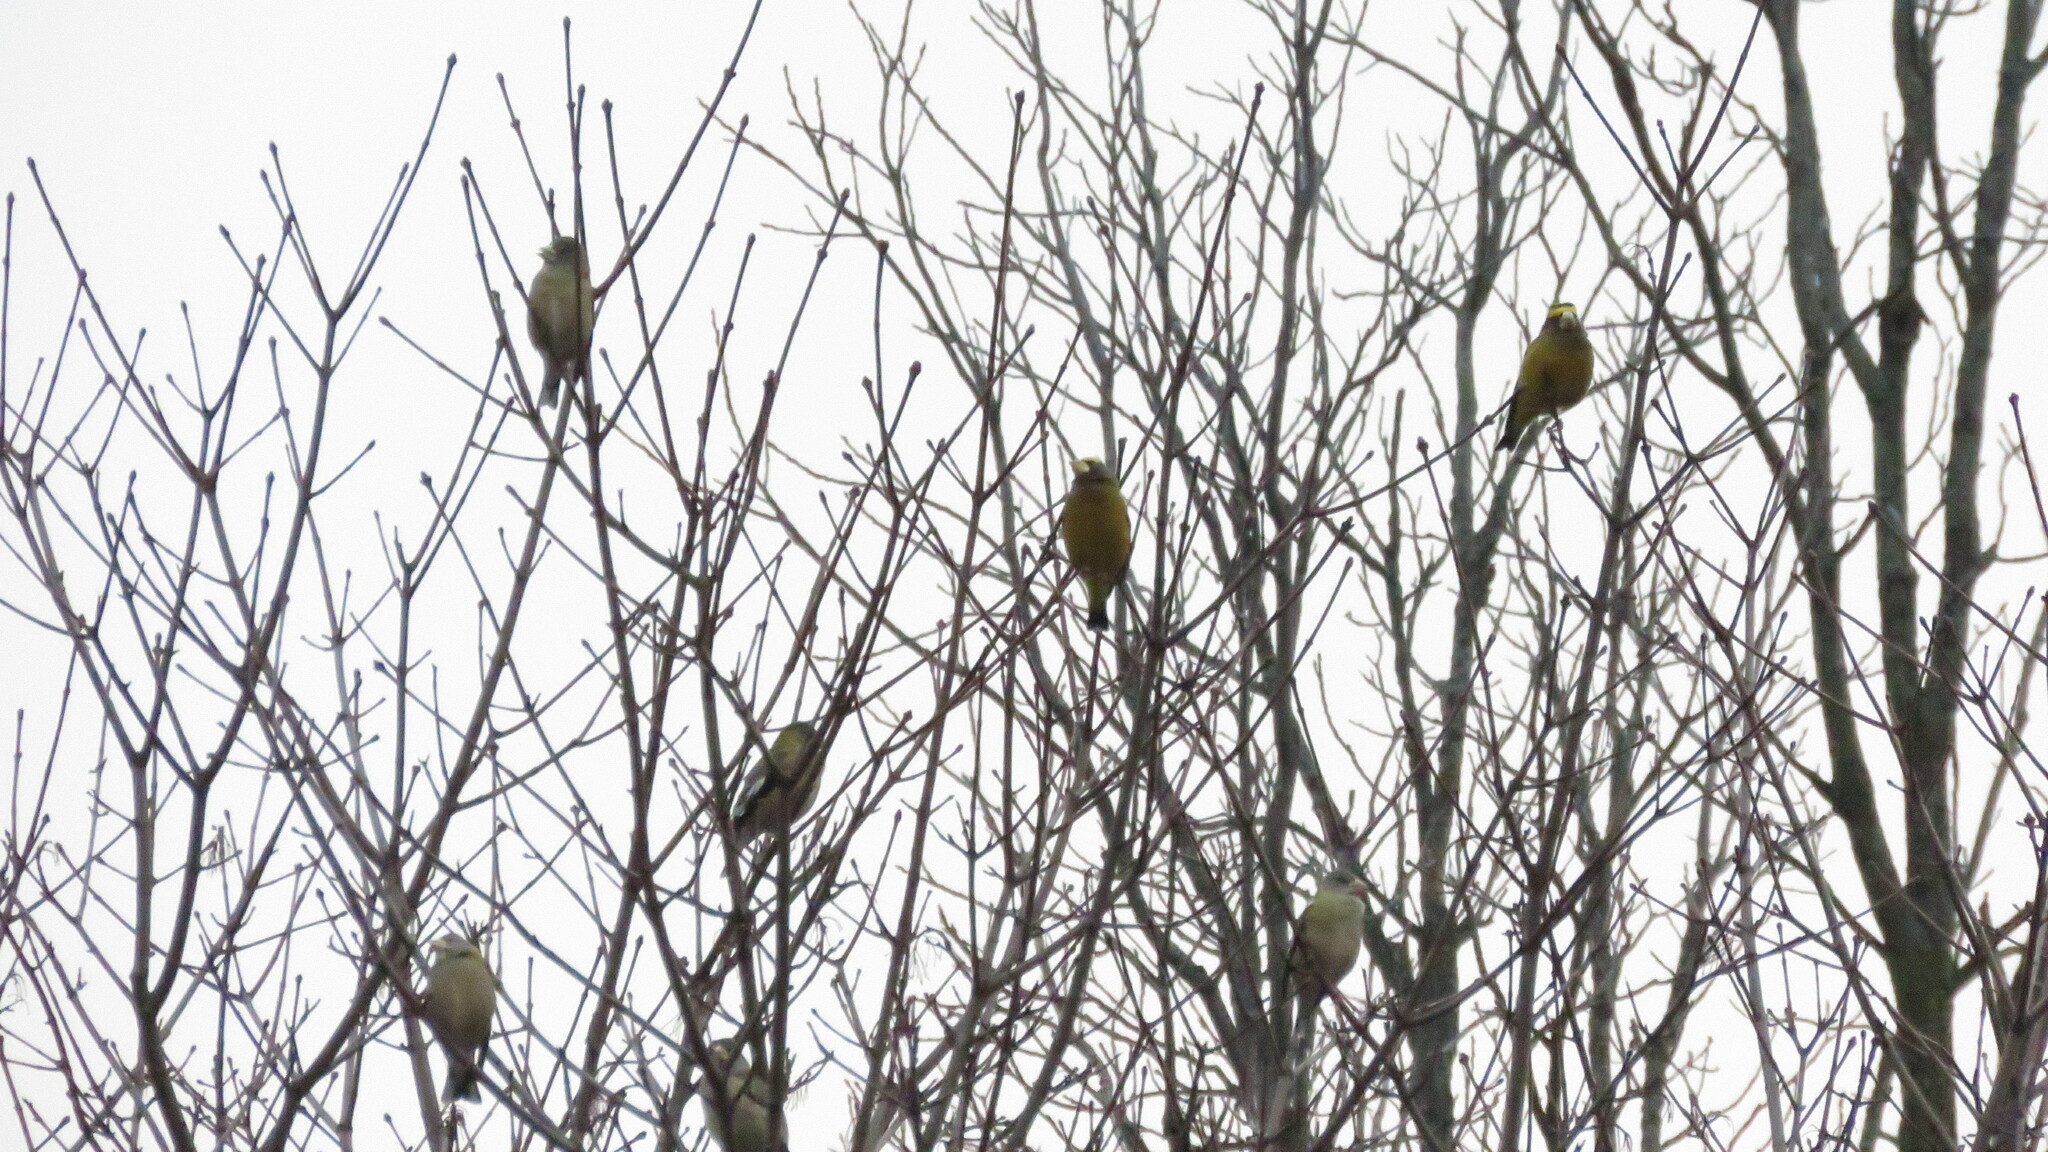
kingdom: Animalia
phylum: Chordata
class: Aves
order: Passeriformes
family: Fringillidae
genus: Hesperiphona
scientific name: Hesperiphona vespertina
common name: Evening grosbeak
